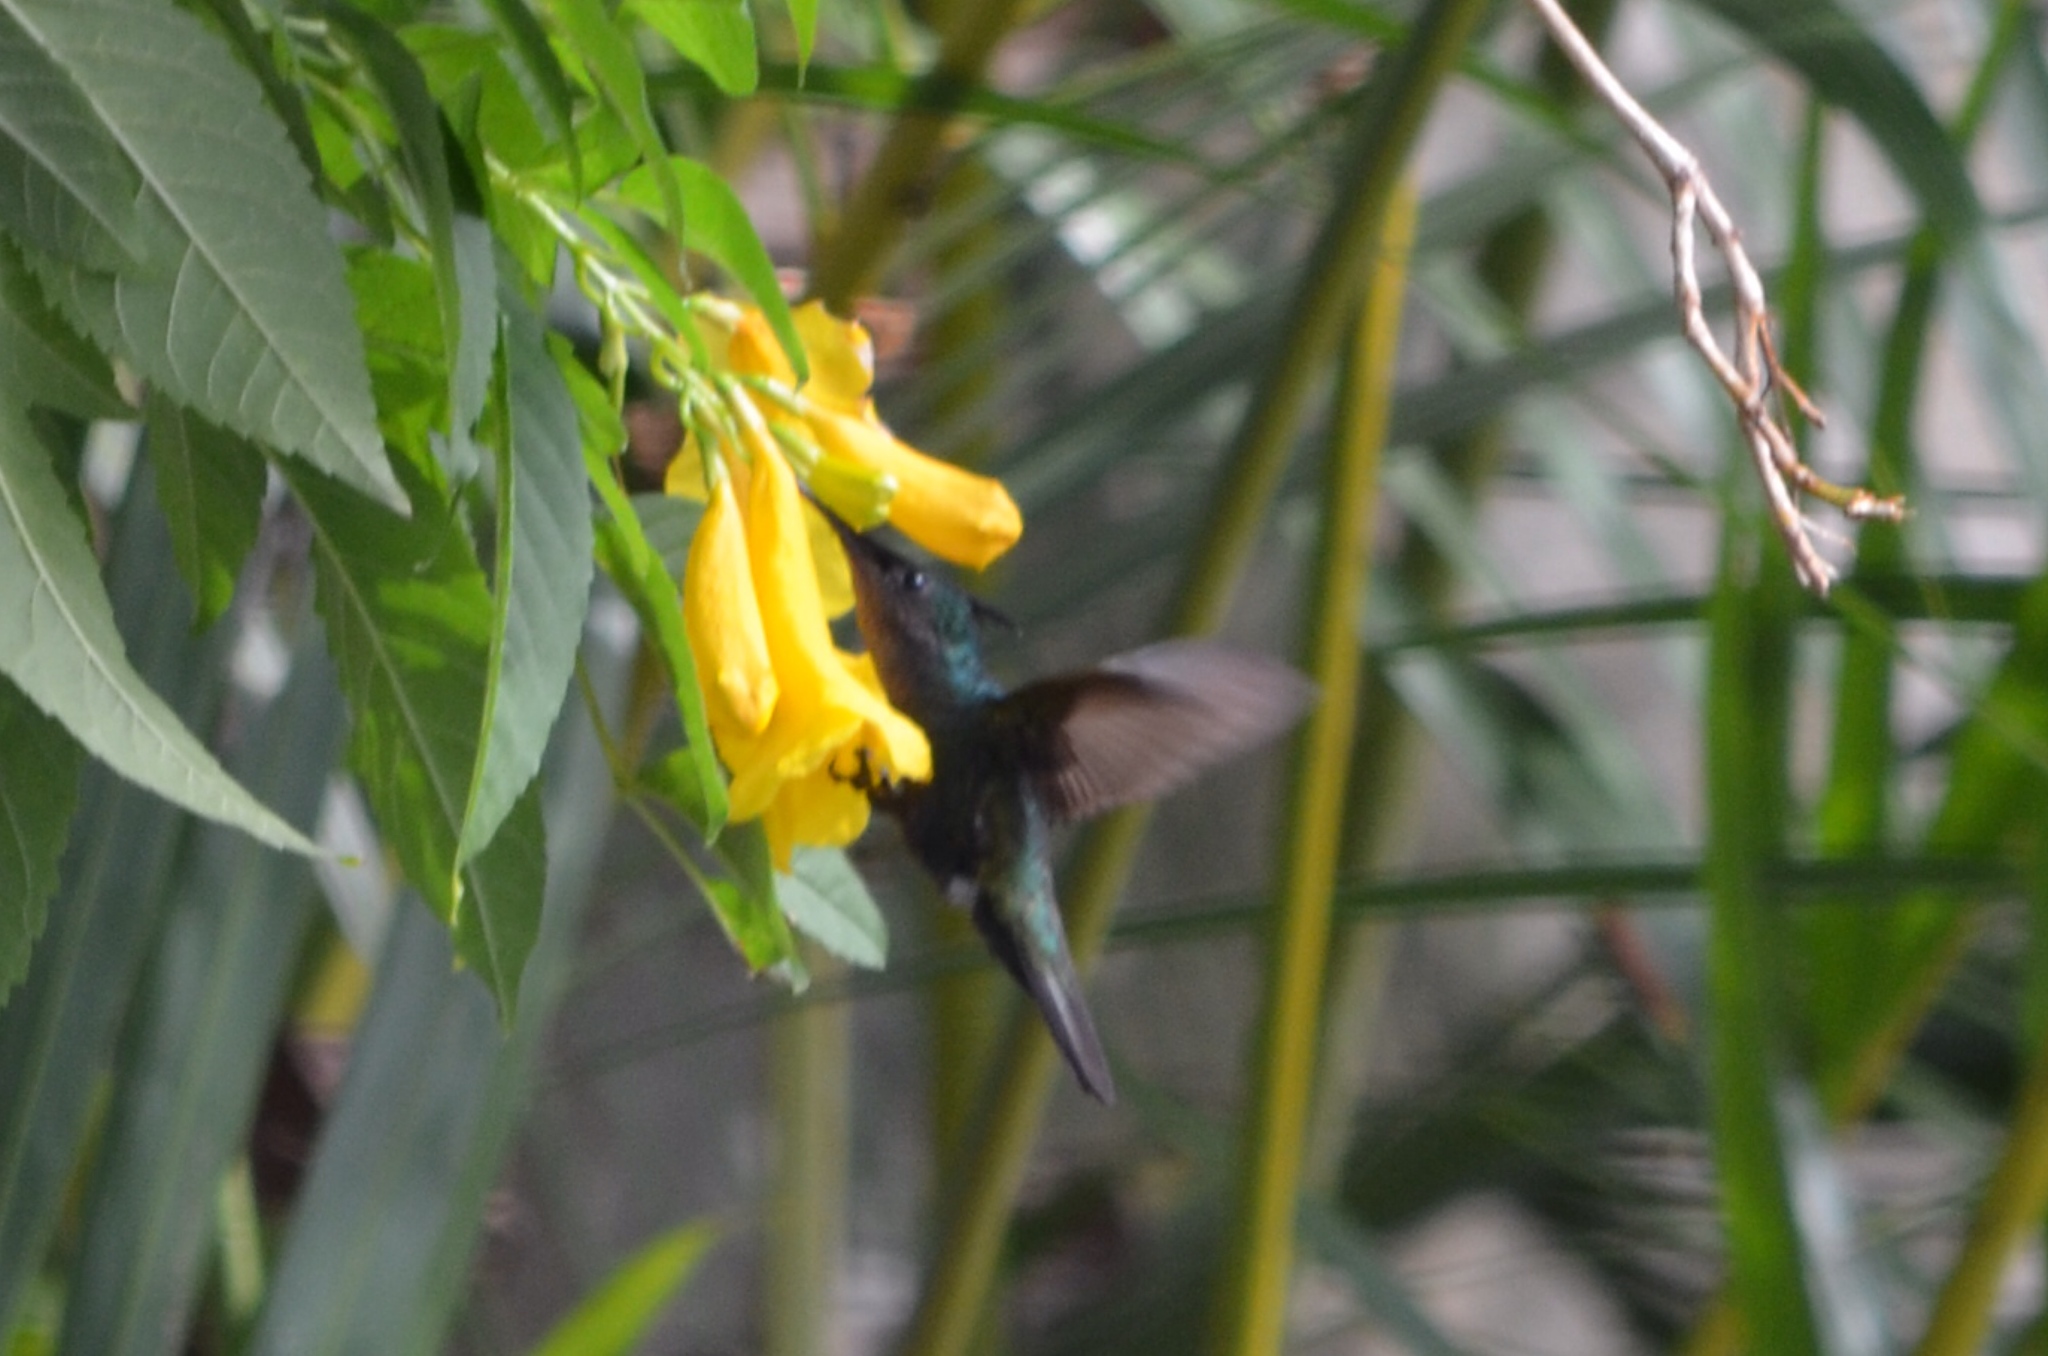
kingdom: Animalia
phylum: Chordata
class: Aves
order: Apodiformes
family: Trochilidae
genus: Orthorhyncus
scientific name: Orthorhyncus cristatus
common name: Antillean crested hummingbird
